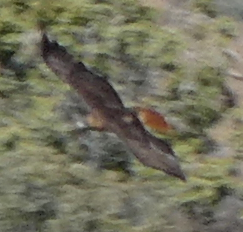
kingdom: Animalia
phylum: Chordata
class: Aves
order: Accipitriformes
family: Accipitridae
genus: Buteo
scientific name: Buteo jamaicensis
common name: Red-tailed hawk
